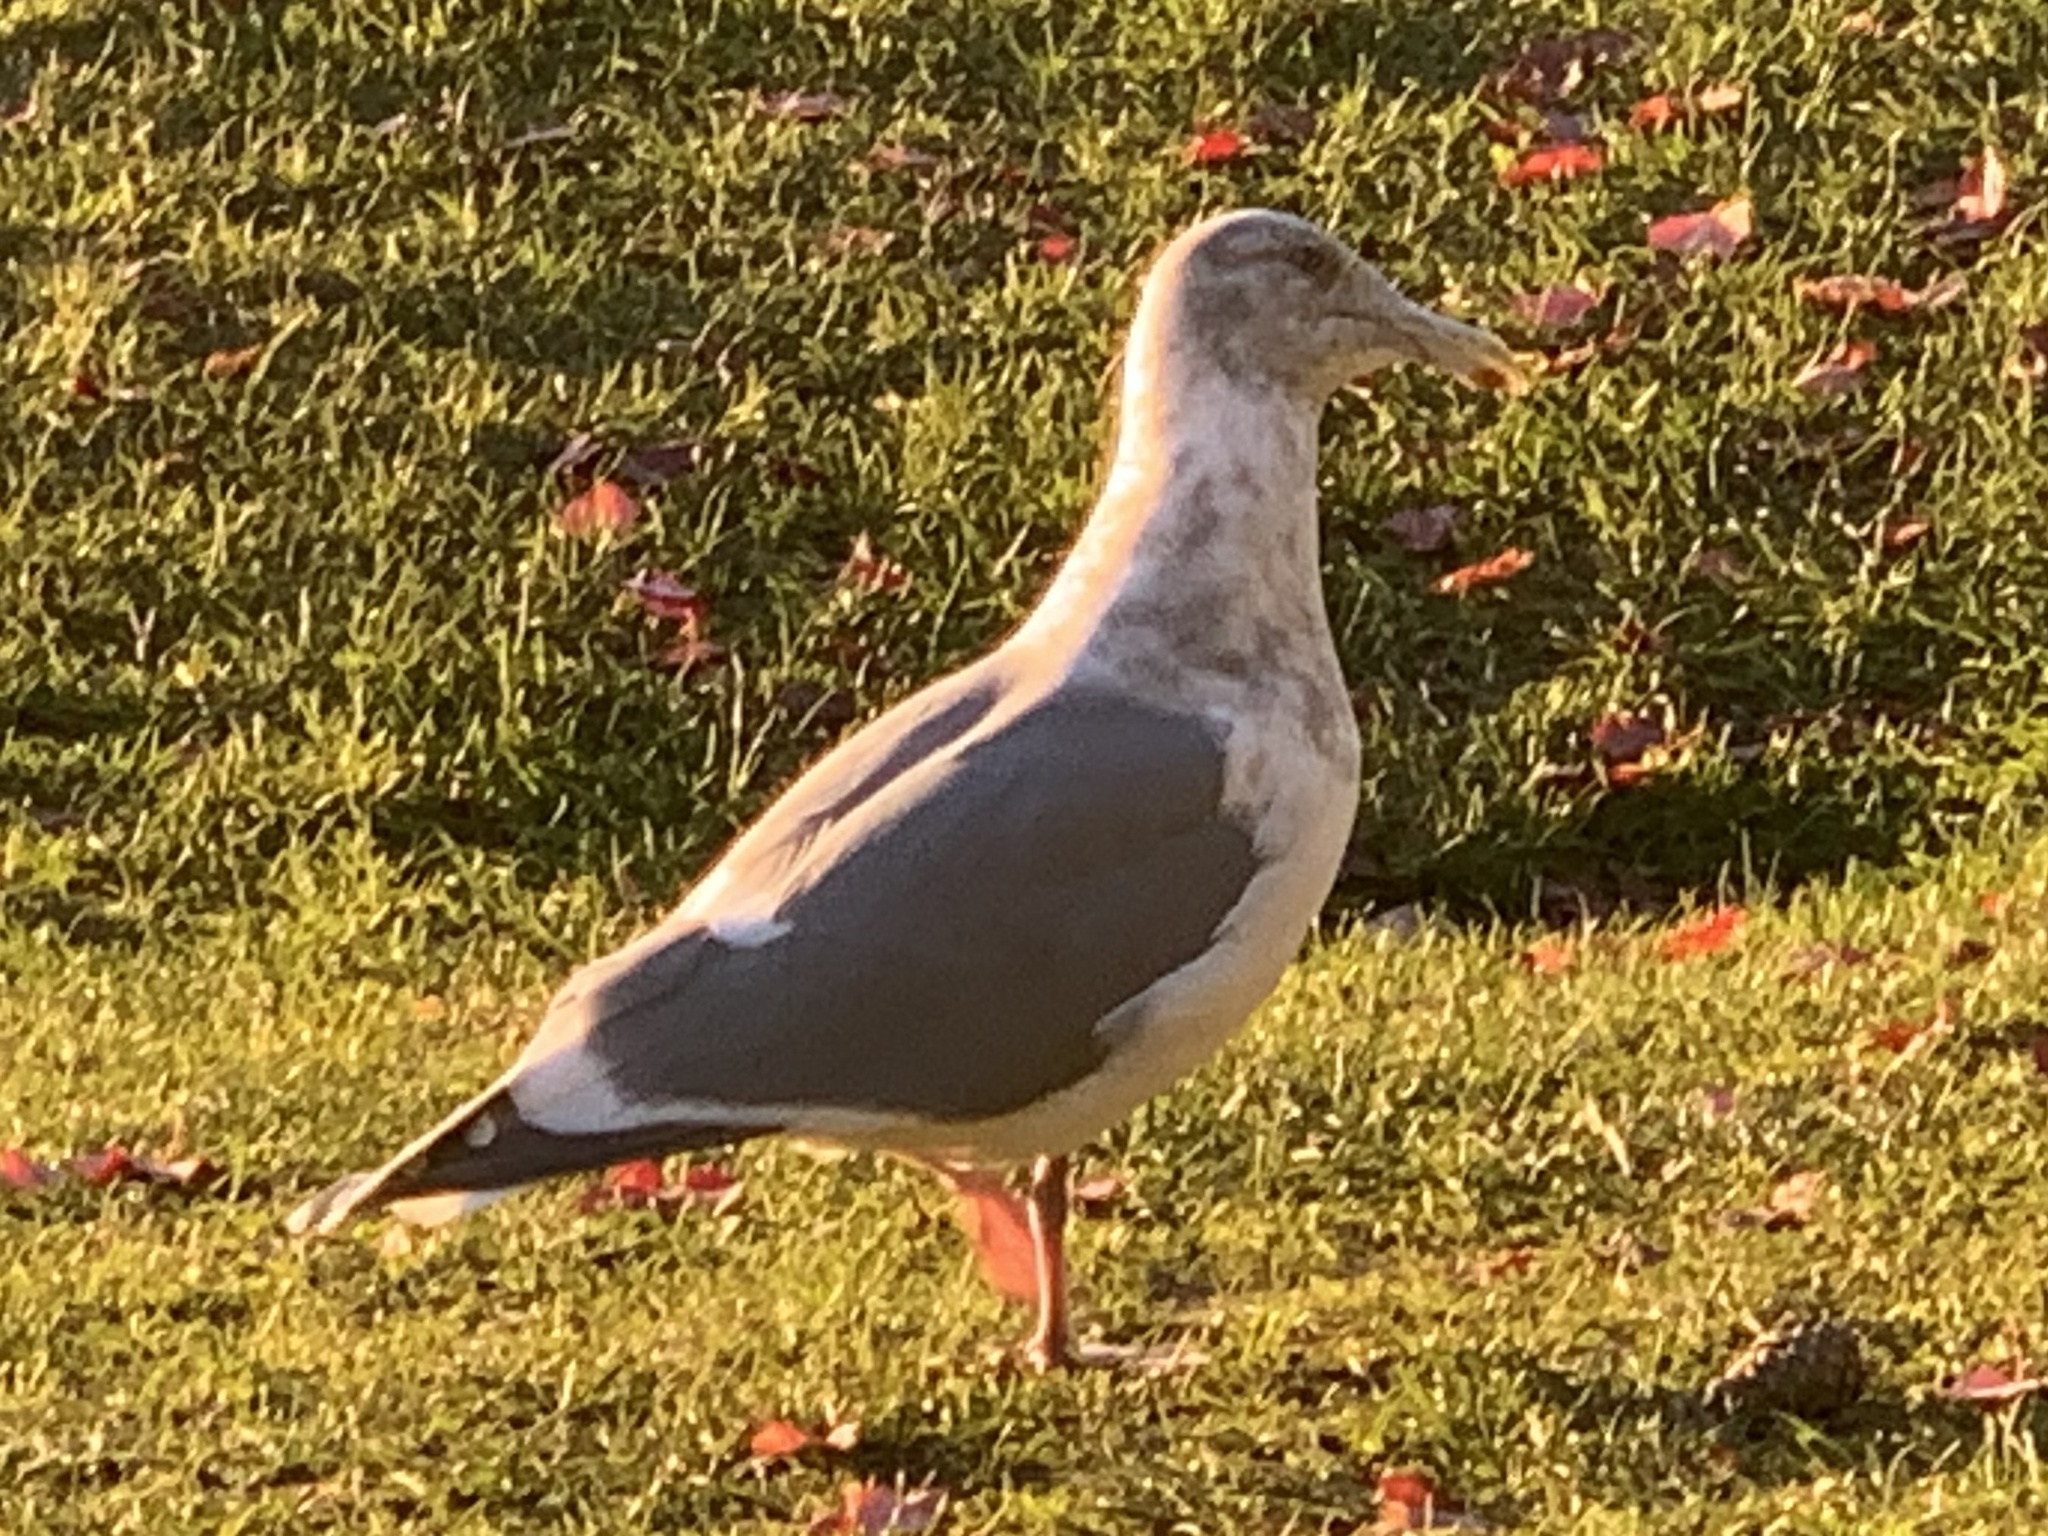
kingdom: Animalia
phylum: Chordata
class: Aves
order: Charadriiformes
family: Laridae
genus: Larus
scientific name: Larus
